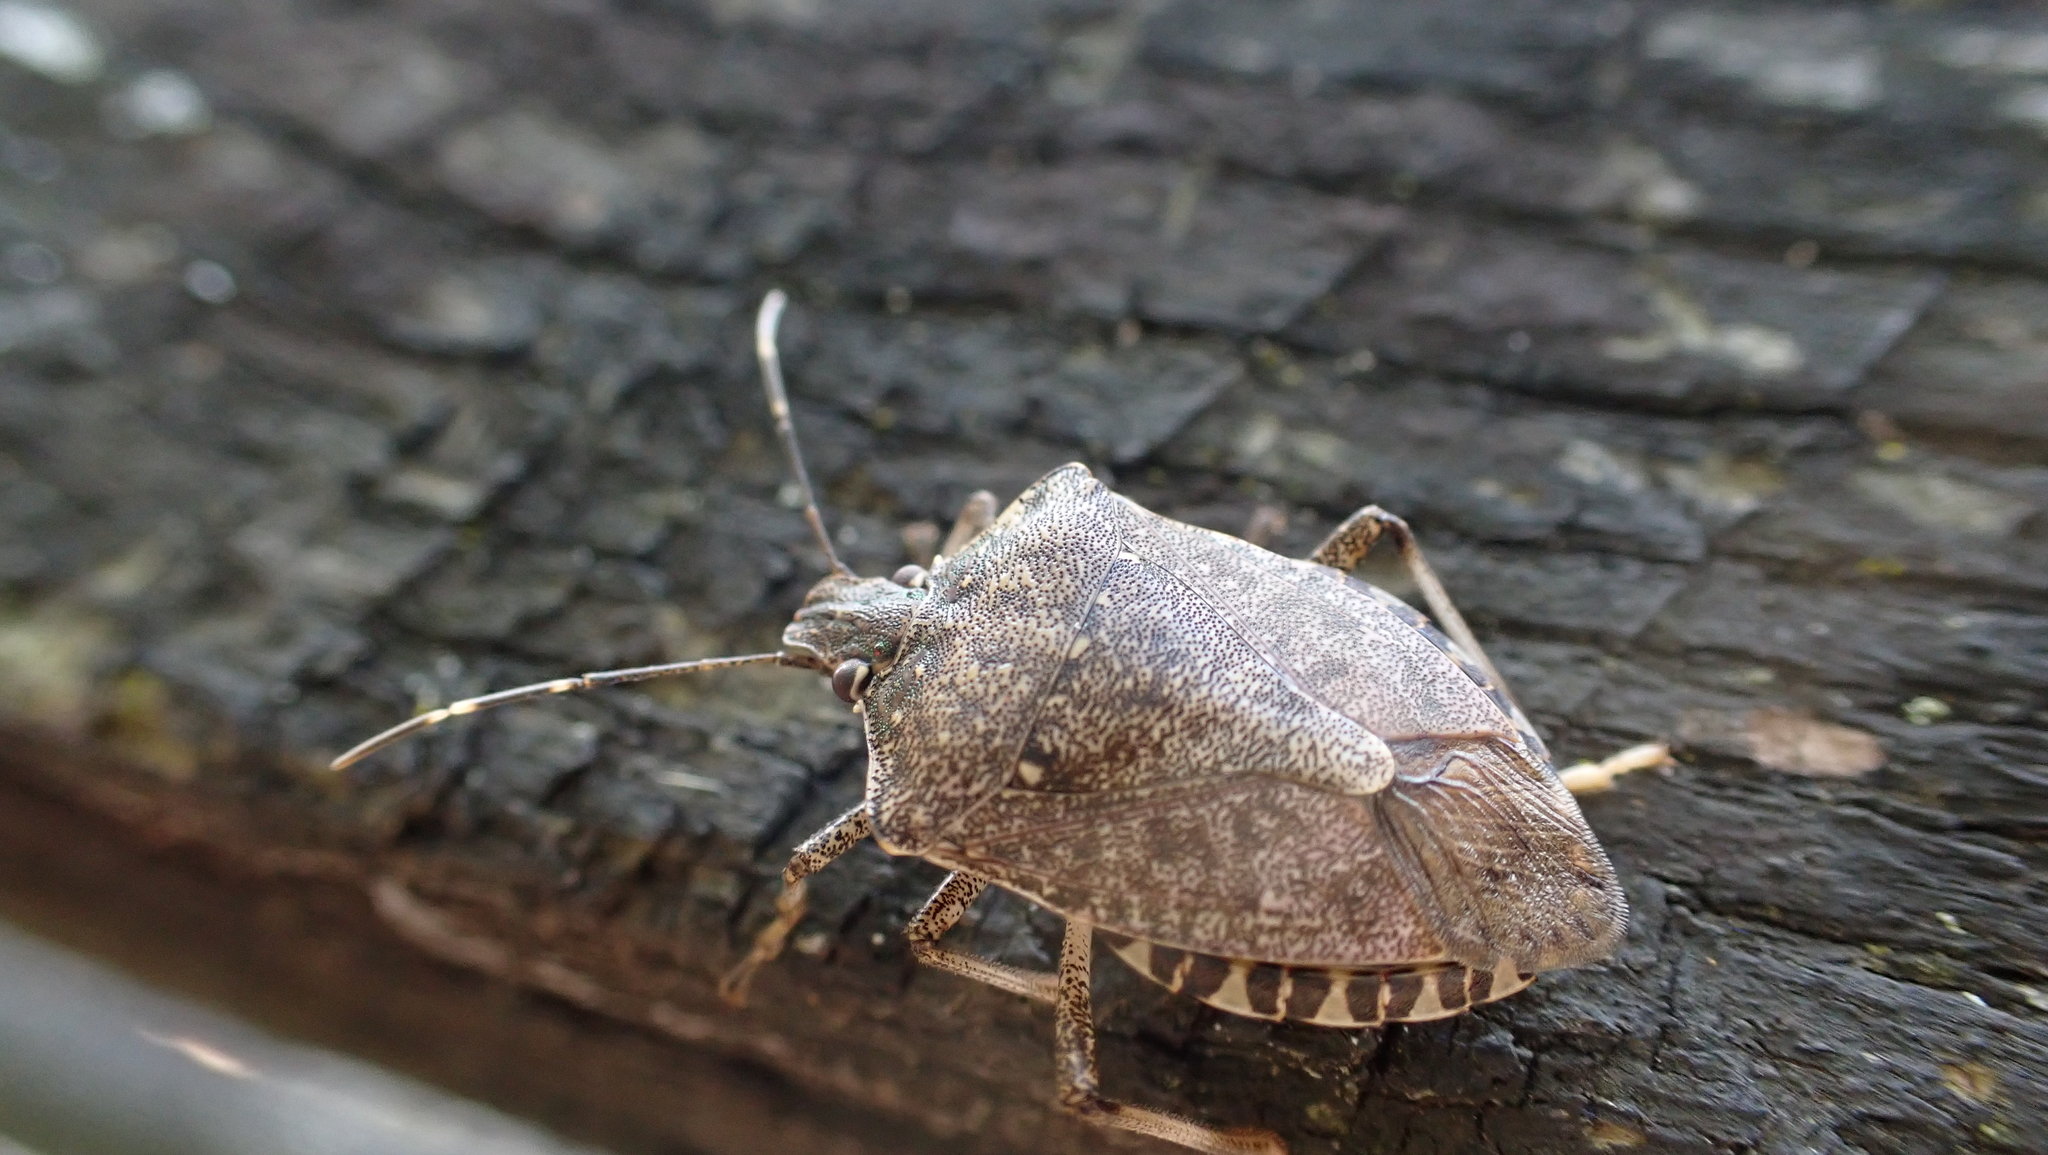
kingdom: Animalia
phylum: Arthropoda
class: Insecta
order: Hemiptera
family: Pentatomidae
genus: Halyomorpha
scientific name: Halyomorpha halys
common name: Brown marmorated stink bug
